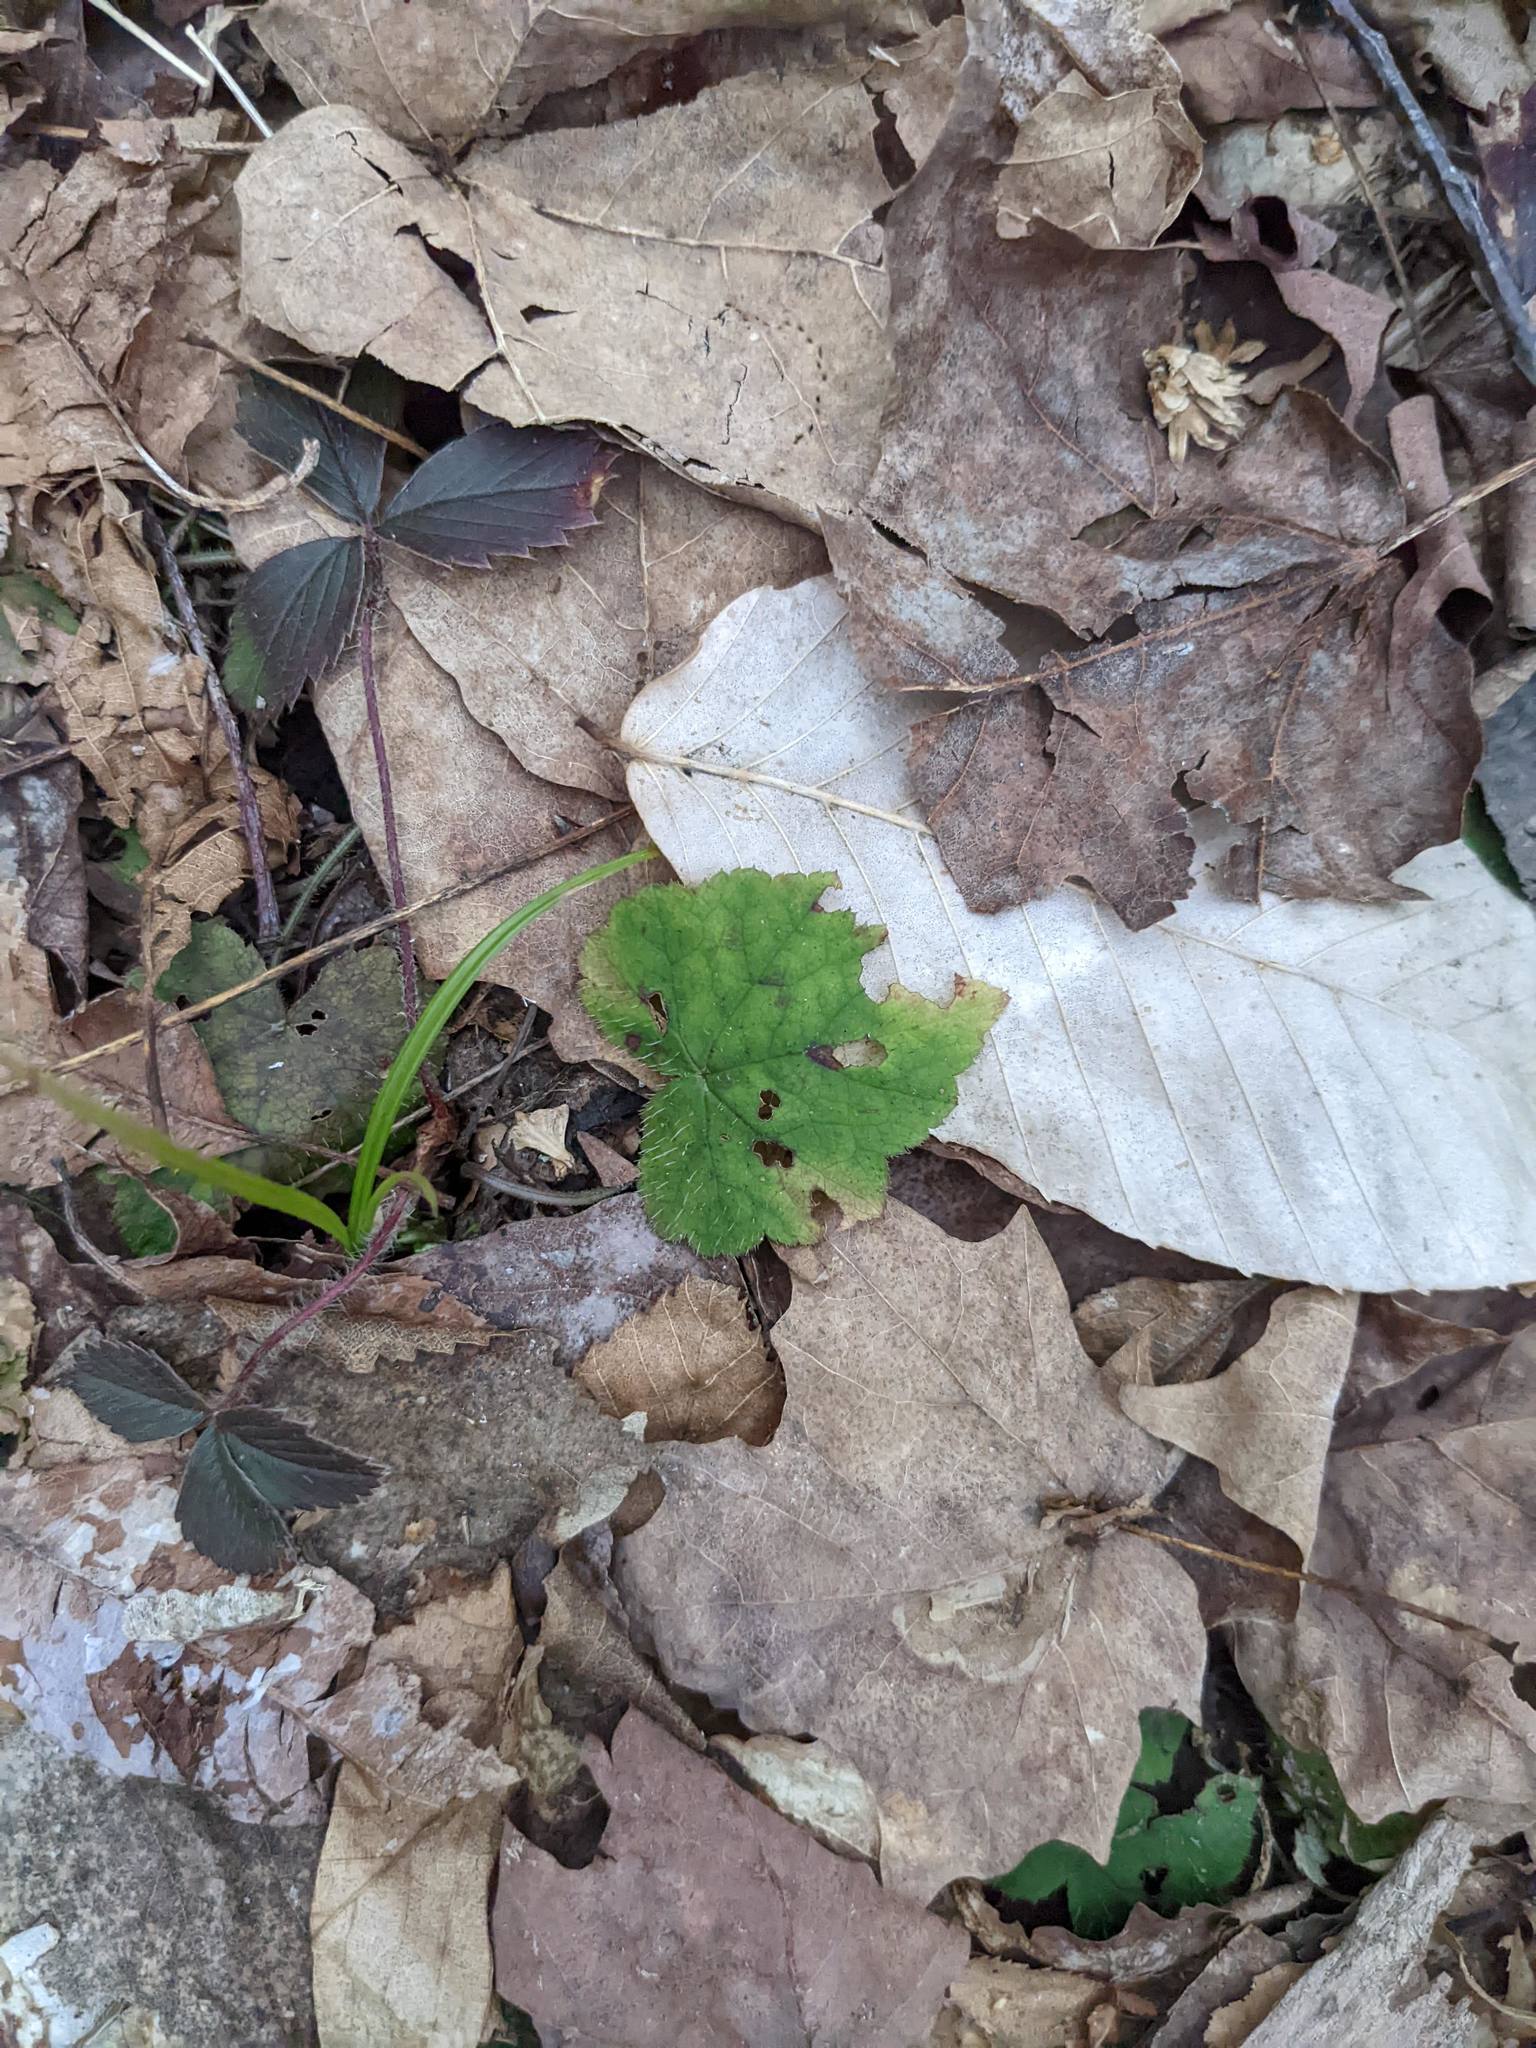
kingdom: Plantae
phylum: Tracheophyta
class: Magnoliopsida
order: Saxifragales
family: Saxifragaceae
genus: Tiarella
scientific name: Tiarella stolonifera
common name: Stoloniferous foamflower
